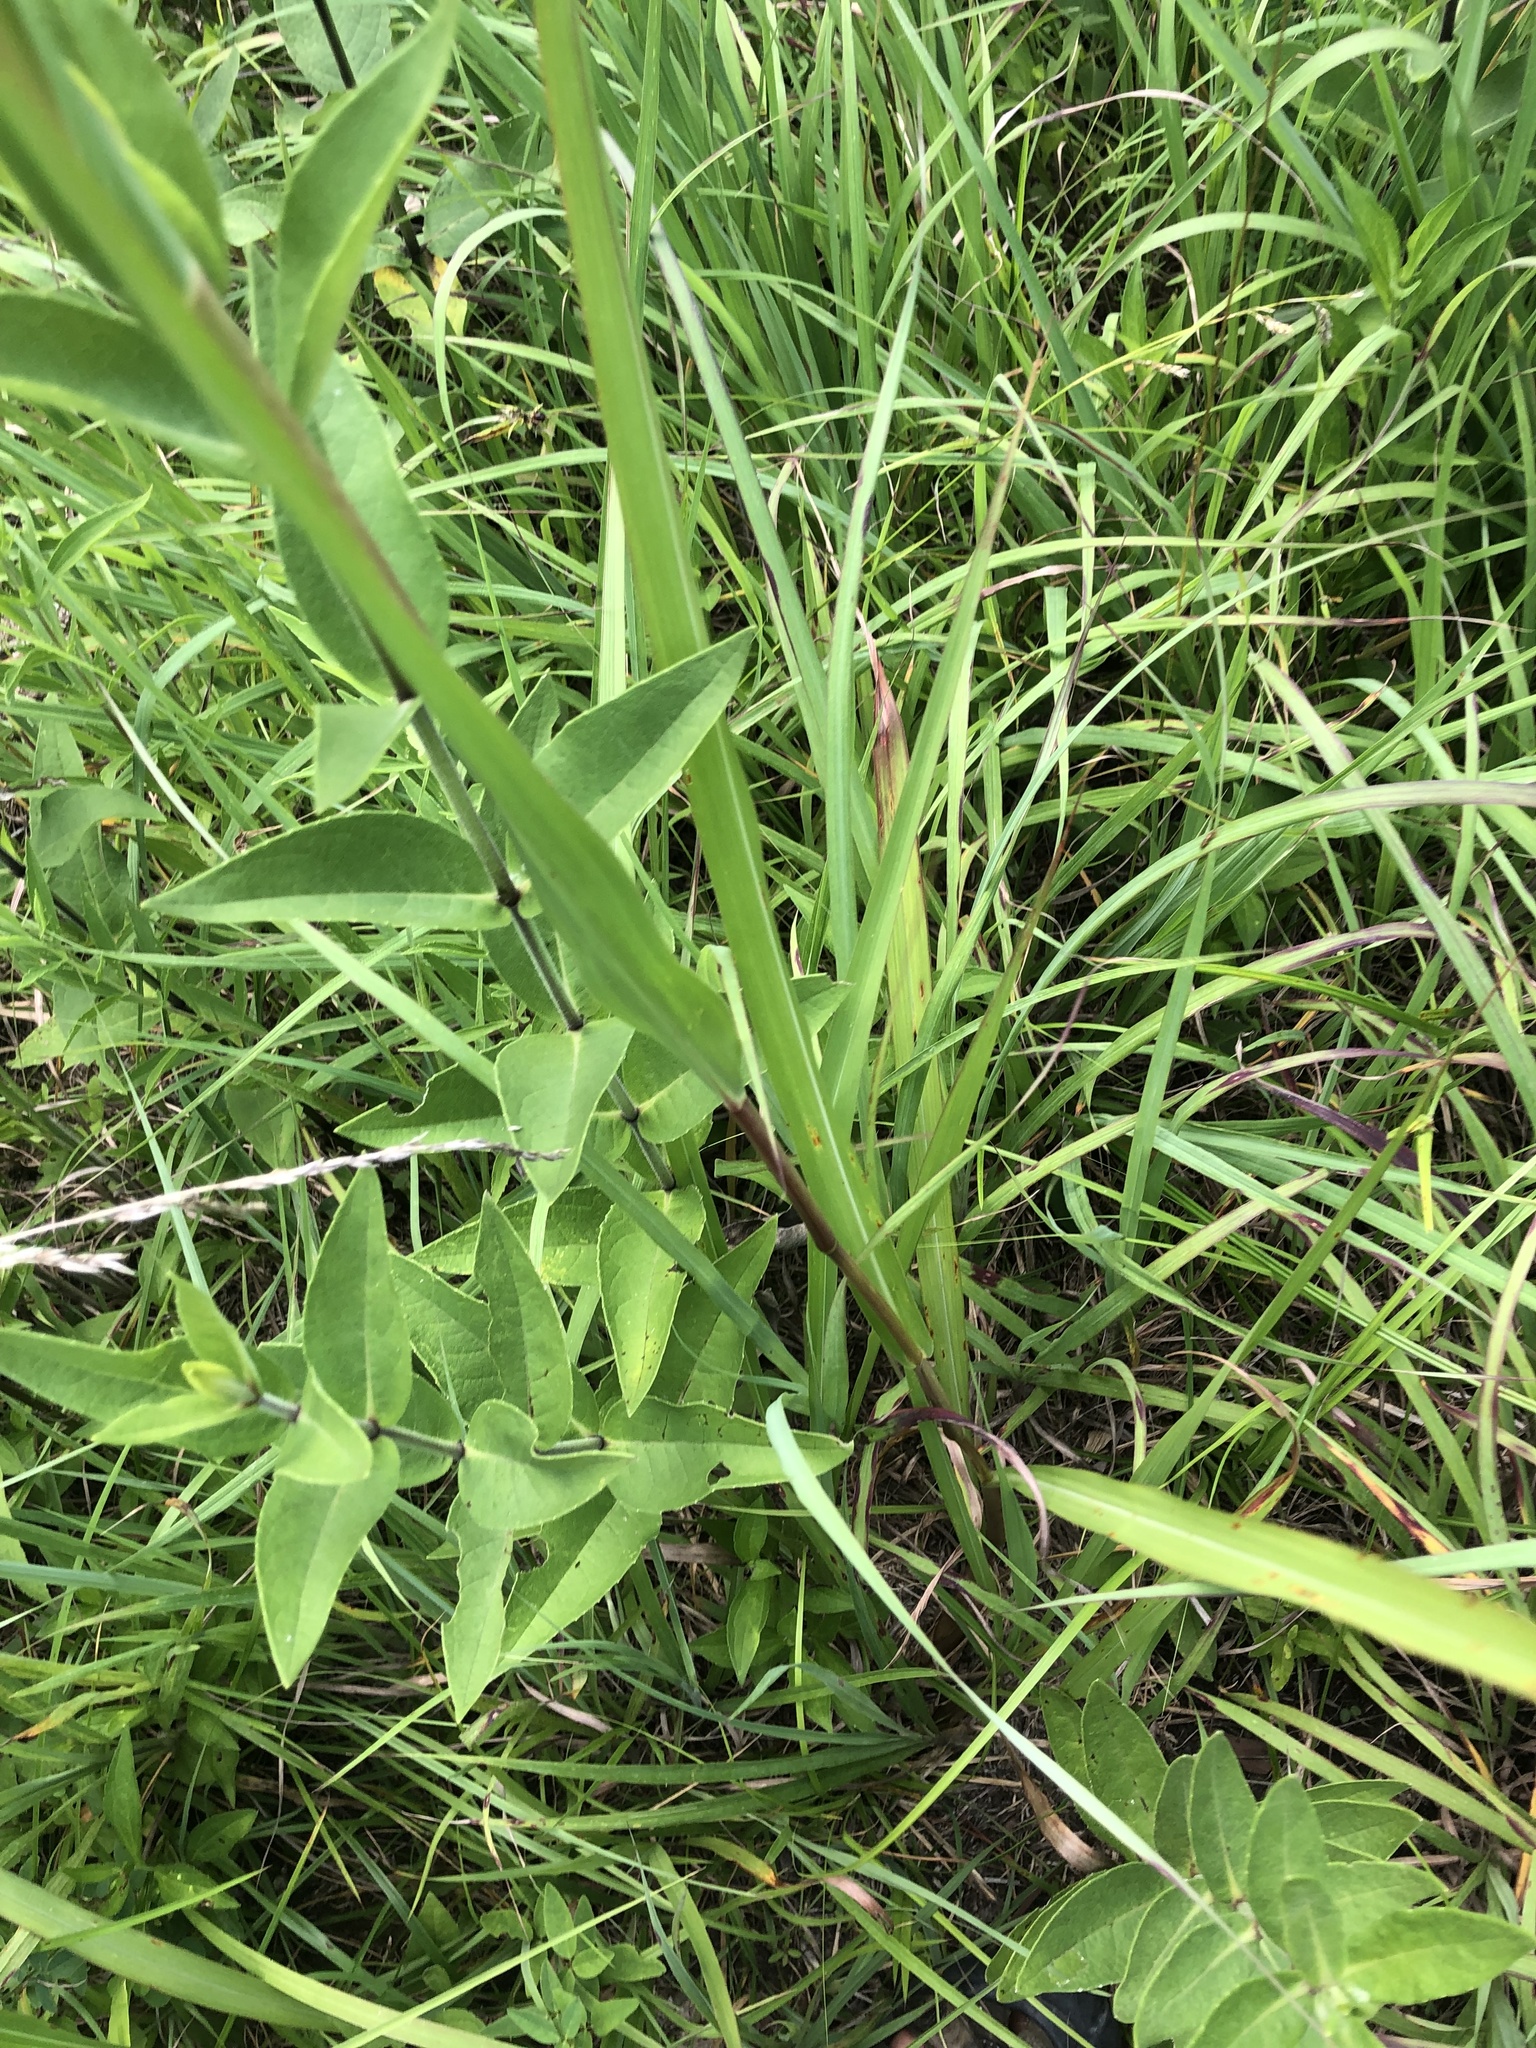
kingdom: Plantae
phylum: Tracheophyta
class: Magnoliopsida
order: Myrtales
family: Onagraceae
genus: Oenothera
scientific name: Oenothera filiformis
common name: Longflower beeblossom
